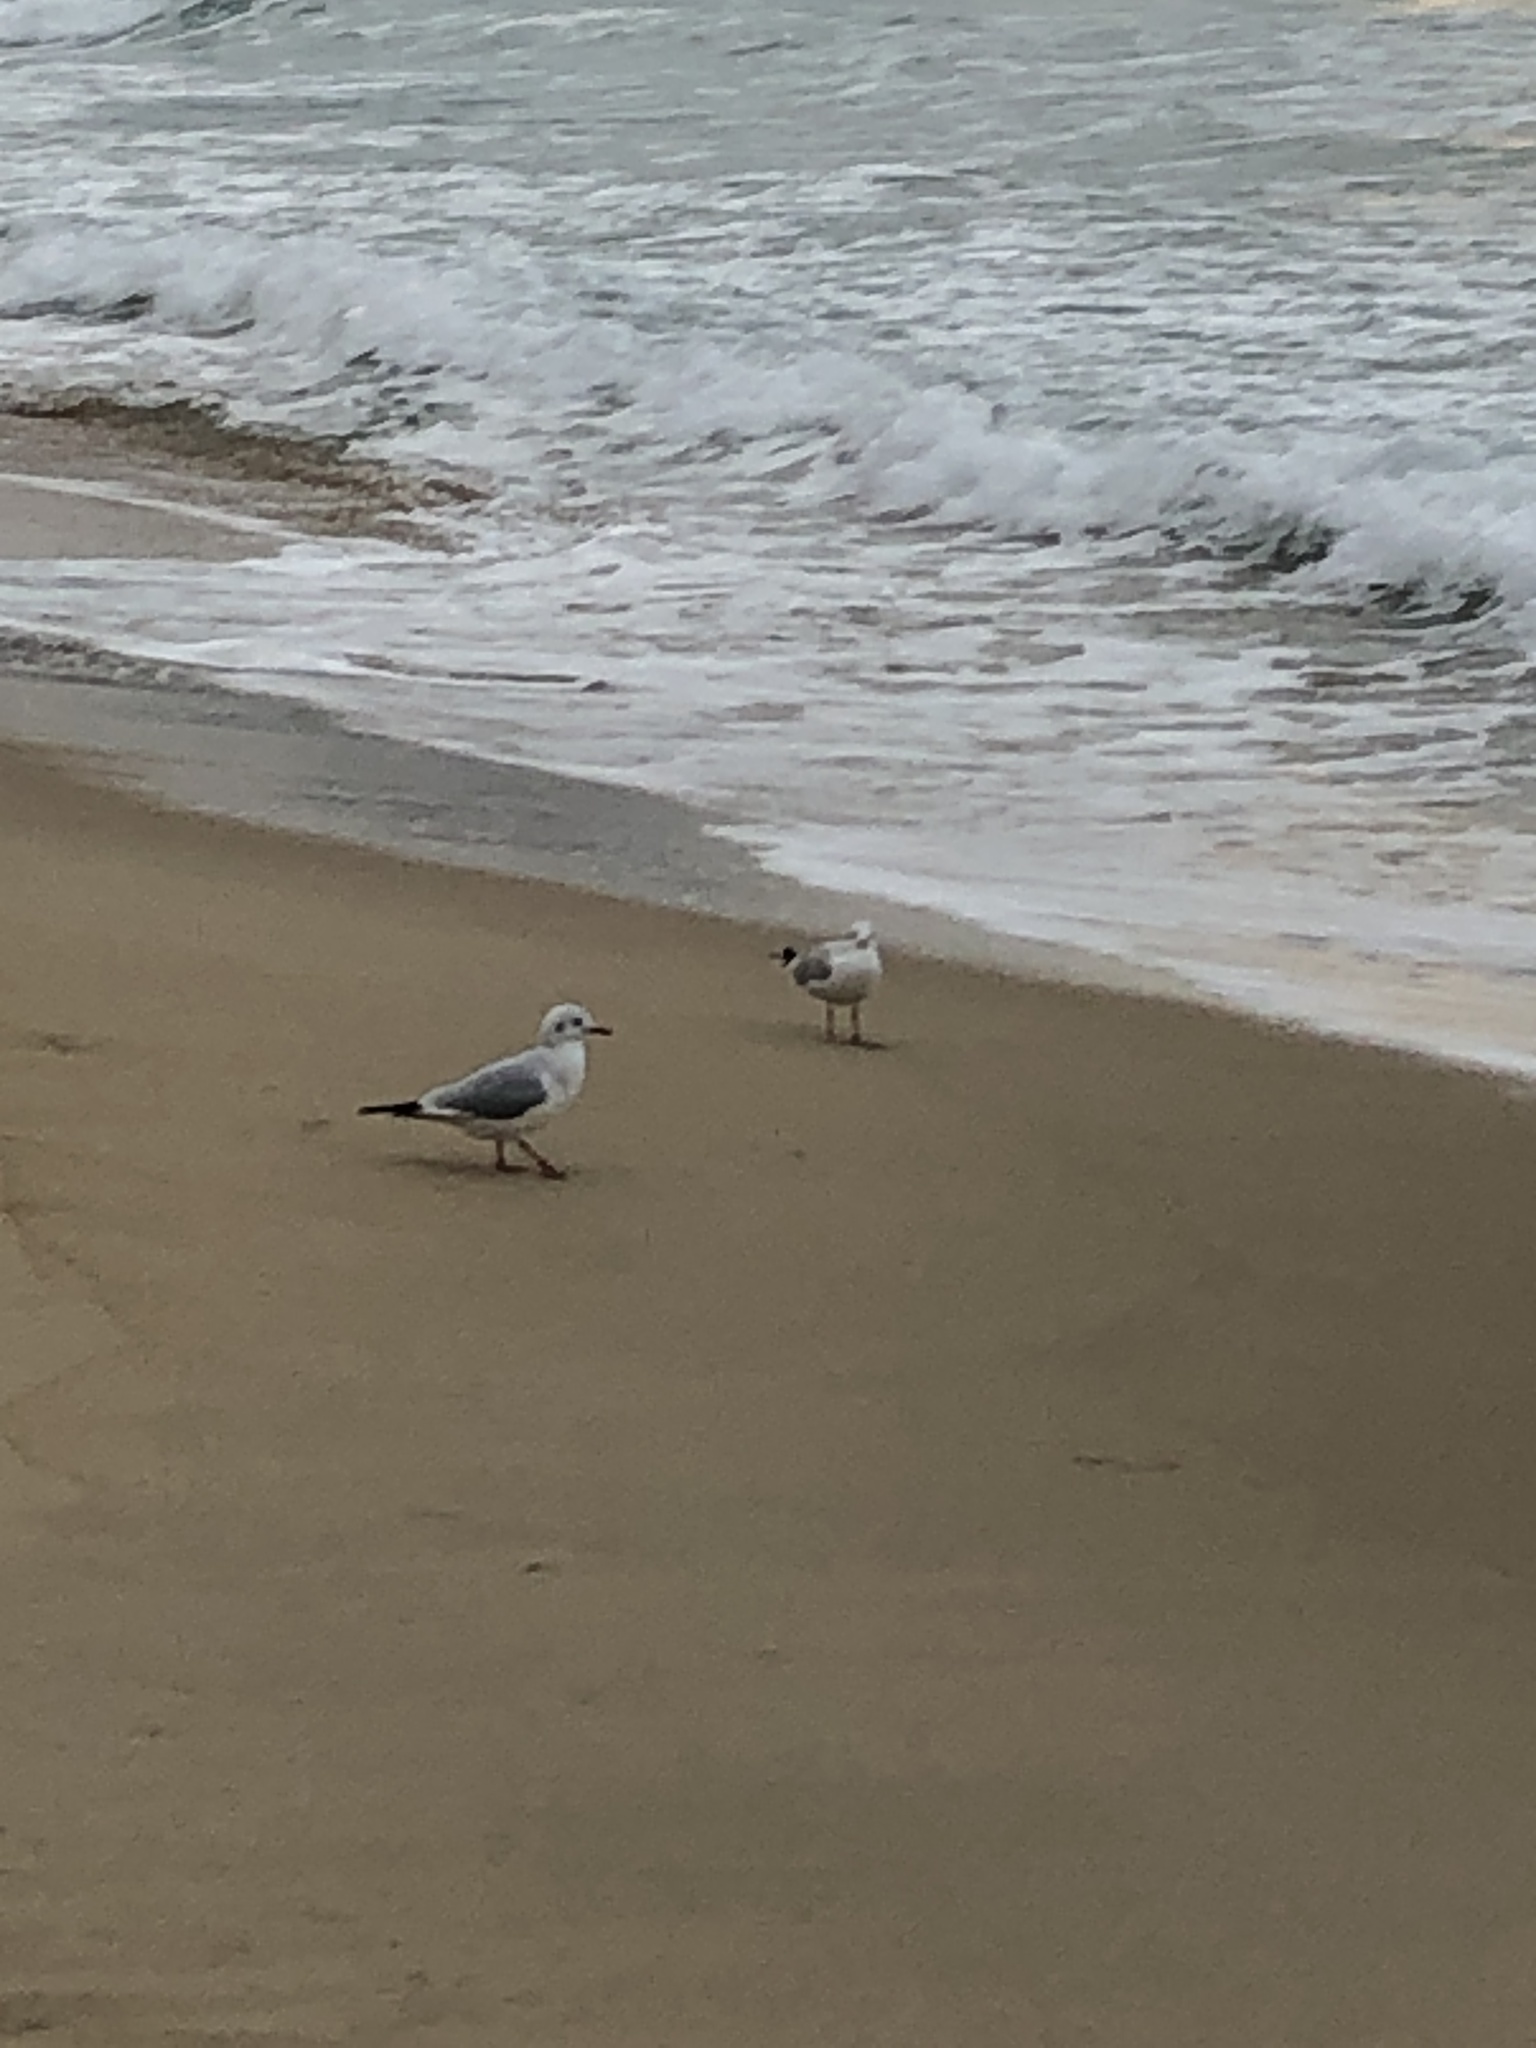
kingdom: Animalia
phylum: Chordata
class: Aves
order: Charadriiformes
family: Laridae
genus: Chroicocephalus
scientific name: Chroicocephalus ridibundus
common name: Black-headed gull
